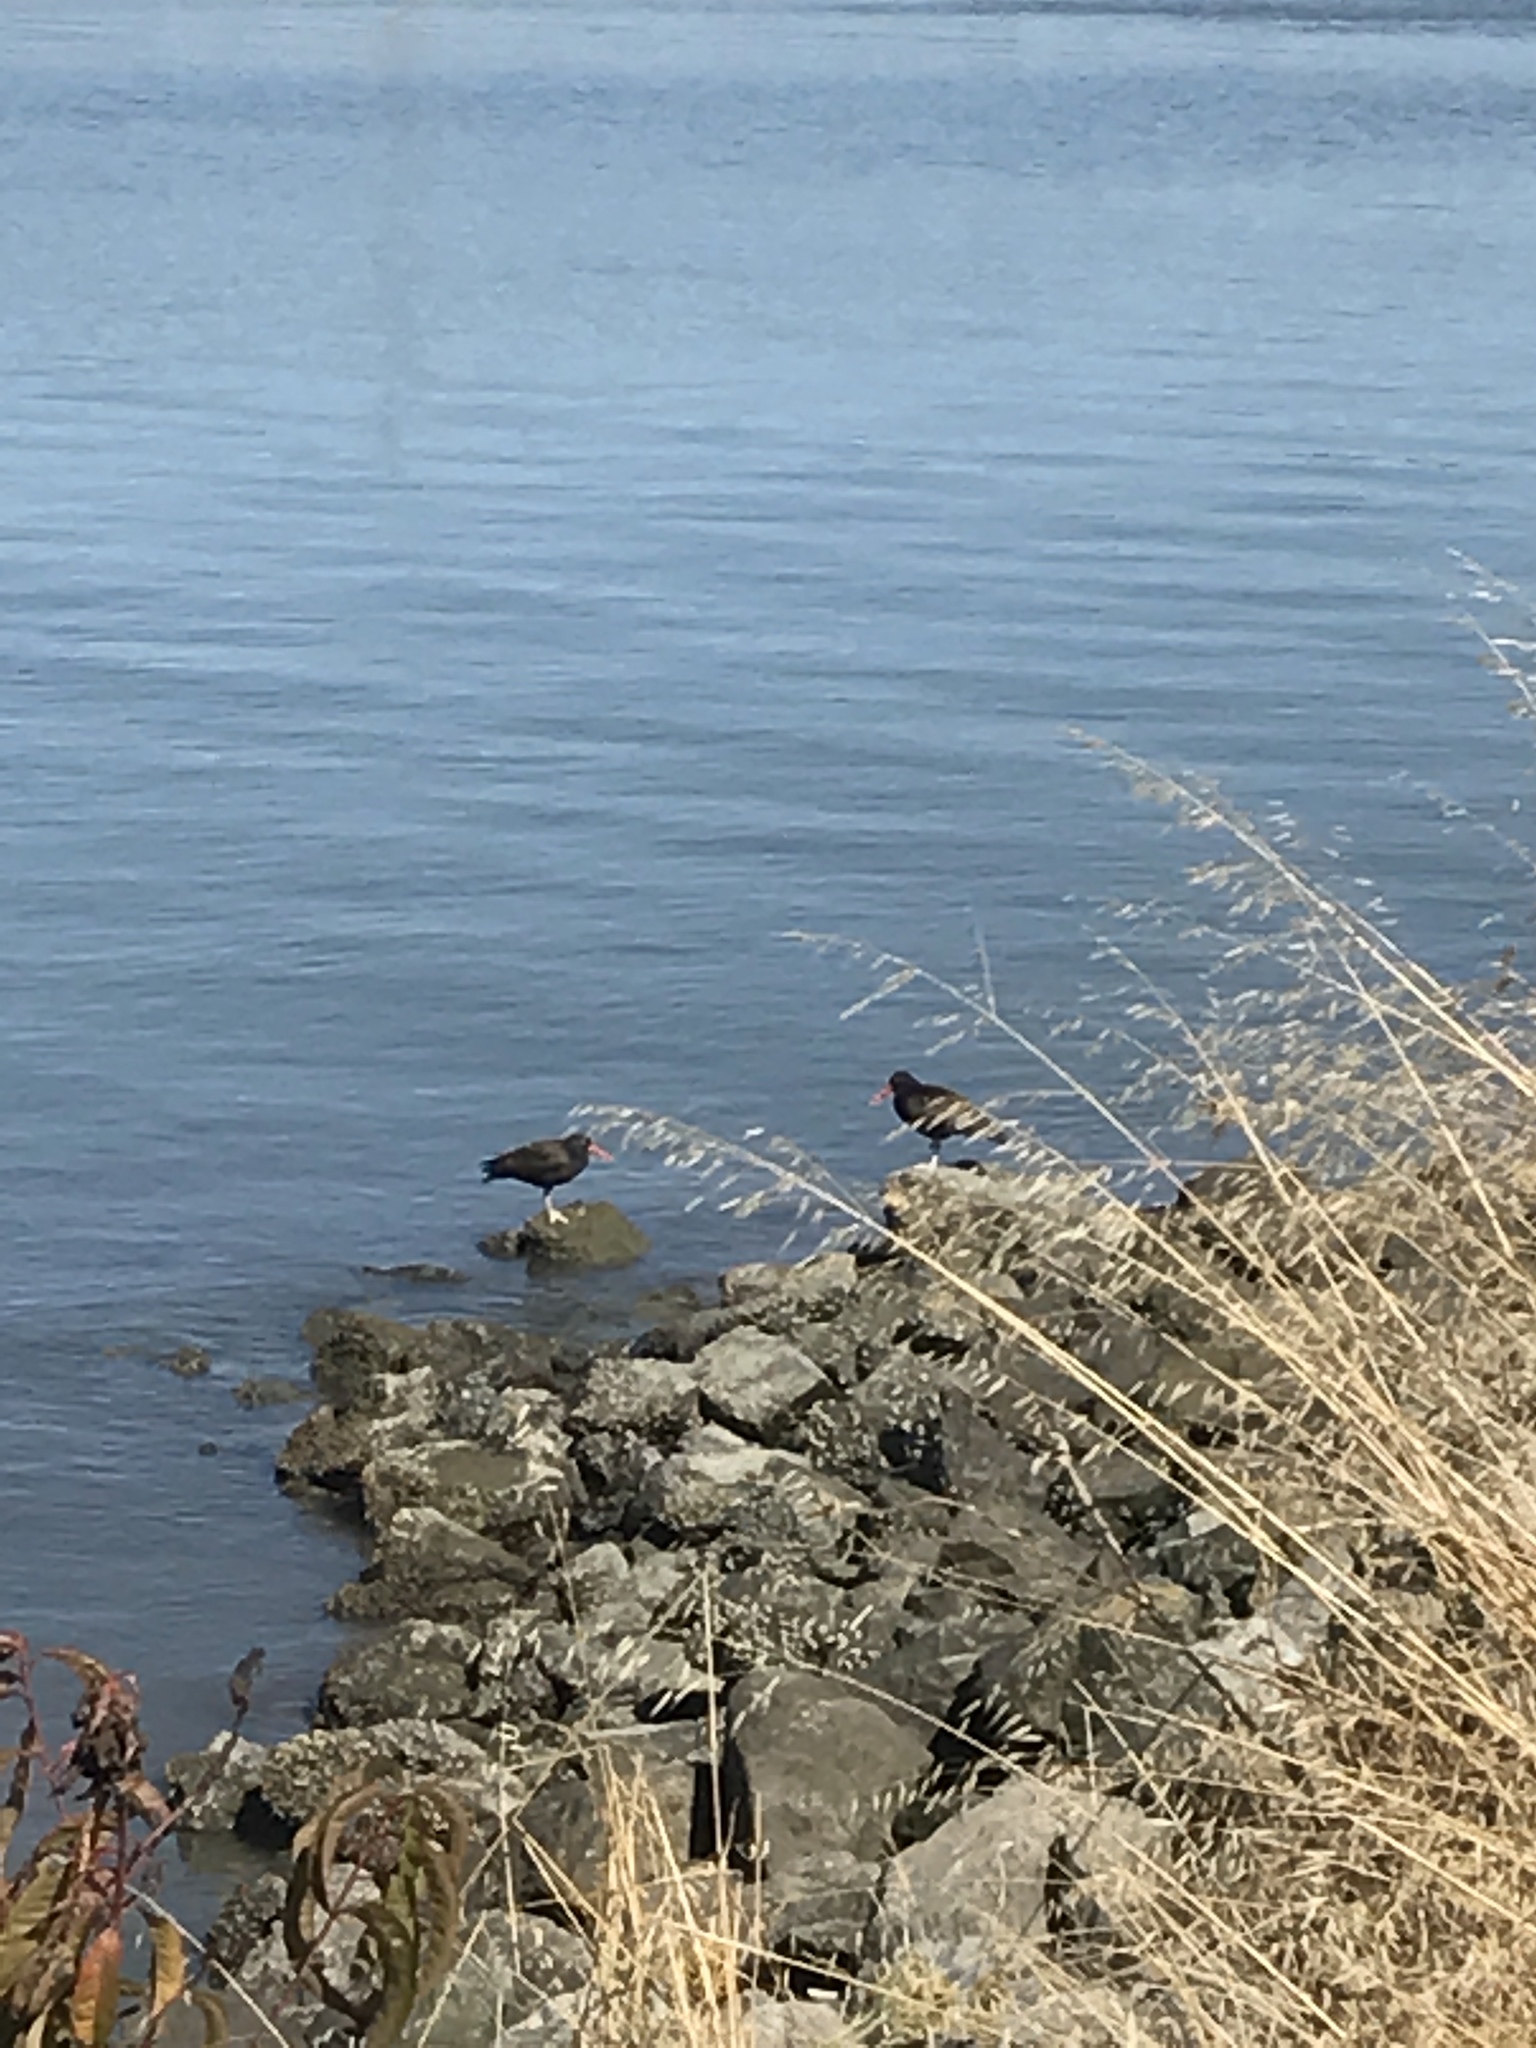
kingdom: Animalia
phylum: Chordata
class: Aves
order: Charadriiformes
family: Haematopodidae
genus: Haematopus
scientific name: Haematopus bachmani
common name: Black oystercatcher
